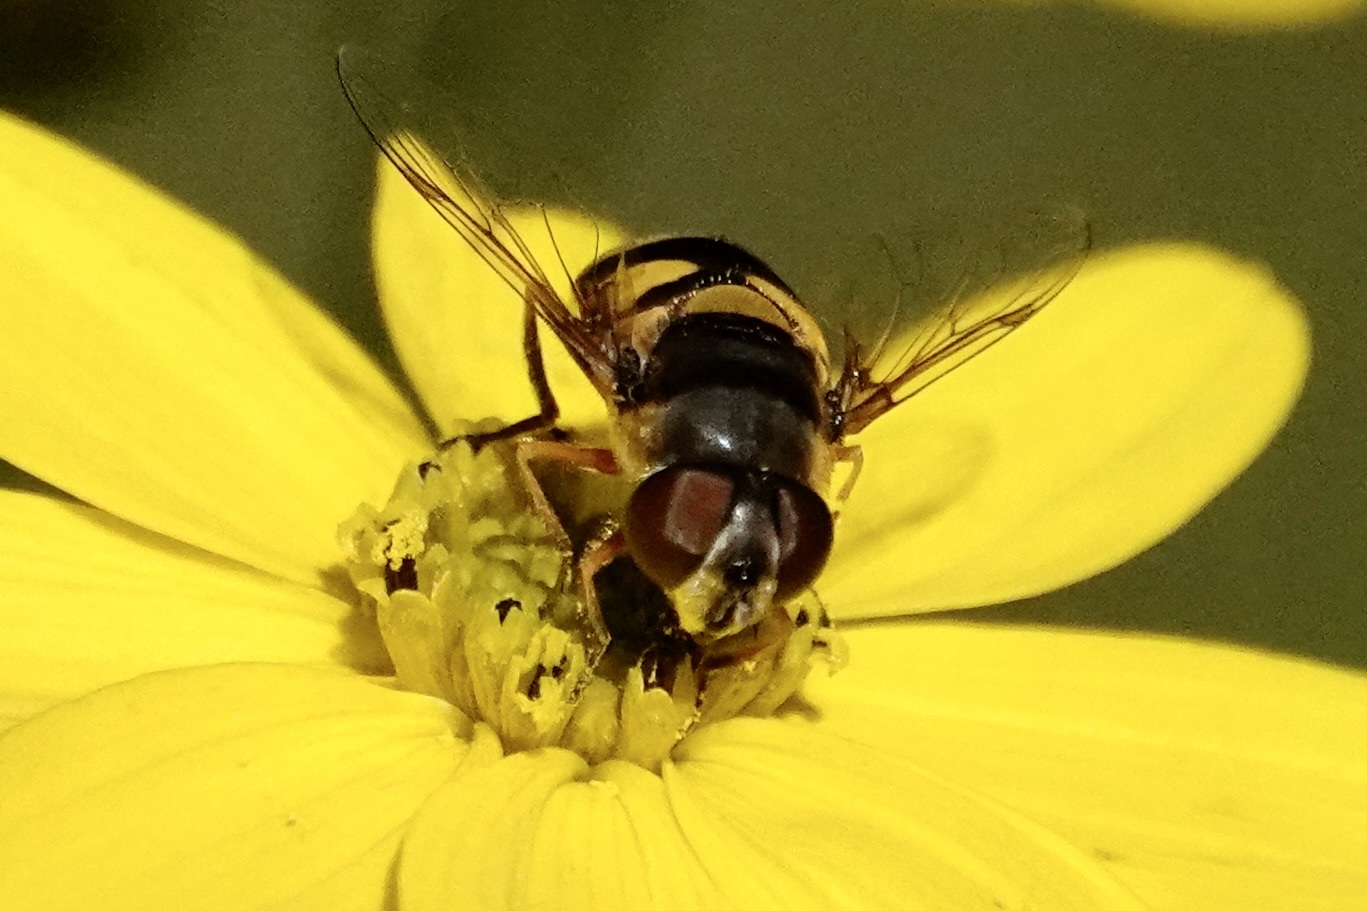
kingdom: Animalia
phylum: Arthropoda
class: Insecta
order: Diptera
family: Syrphidae
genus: Eristalis
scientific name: Eristalis transversa
